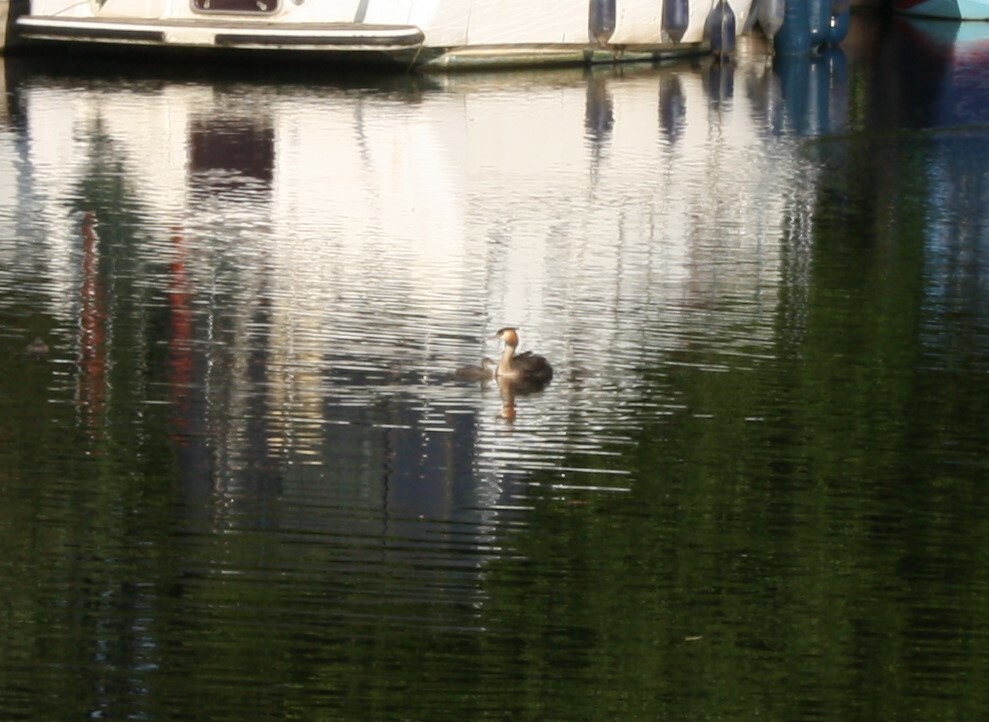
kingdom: Animalia
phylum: Chordata
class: Aves
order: Podicipediformes
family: Podicipedidae
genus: Podiceps
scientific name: Podiceps cristatus
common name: Great crested grebe
